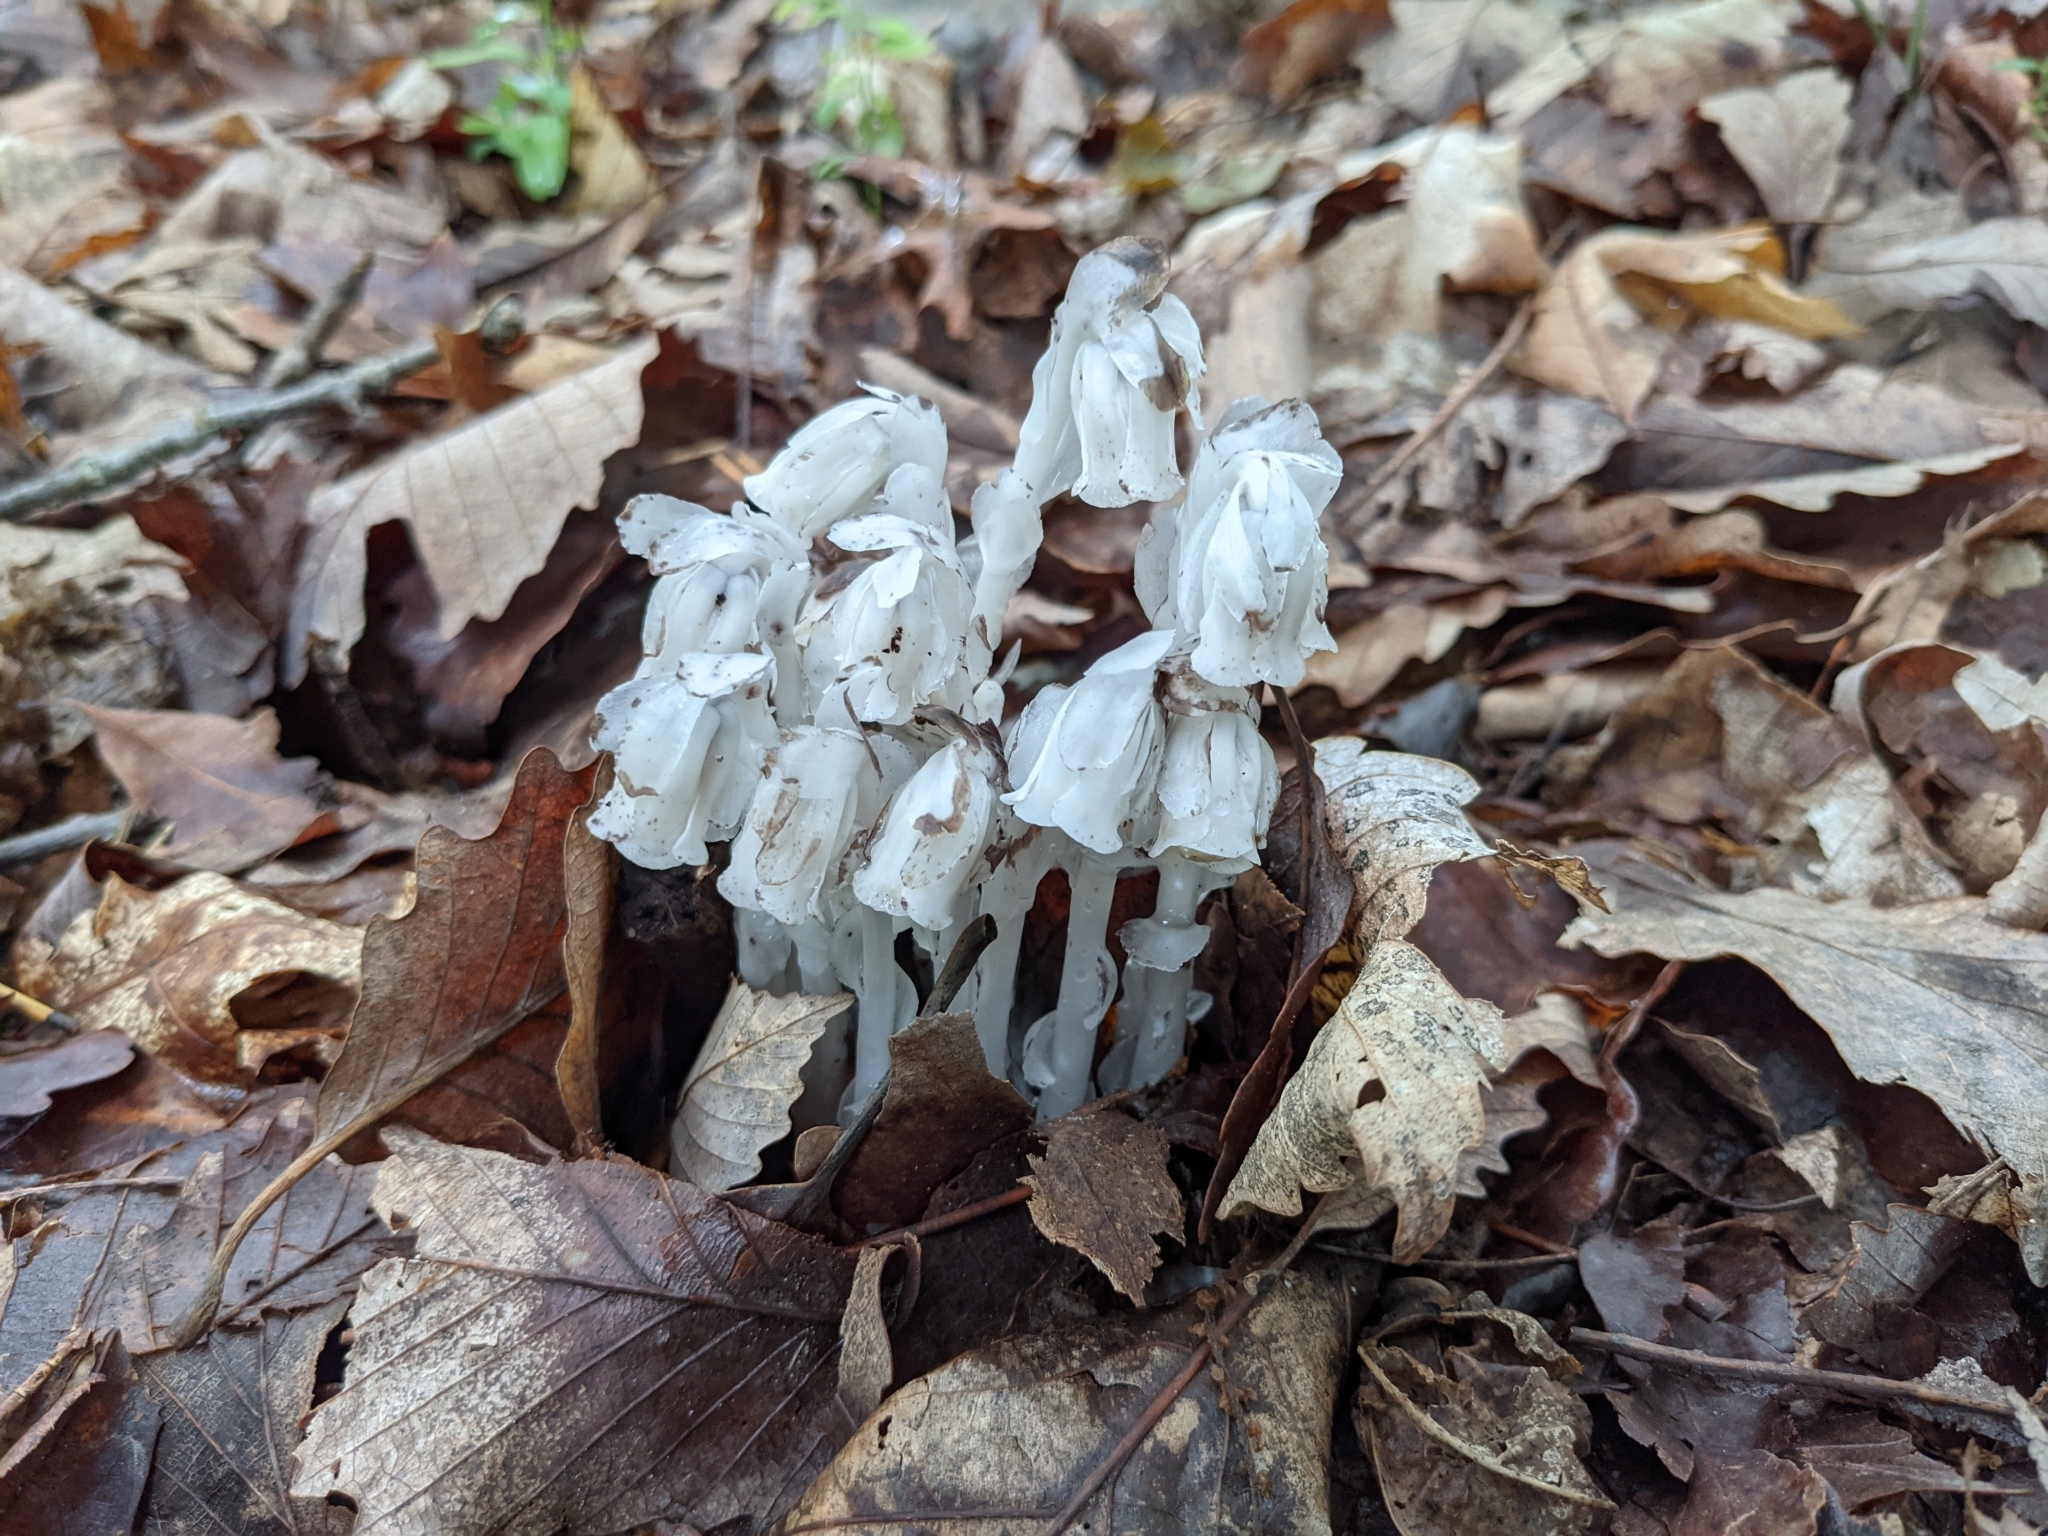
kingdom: Plantae
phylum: Tracheophyta
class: Magnoliopsida
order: Ericales
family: Ericaceae
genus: Monotropa
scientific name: Monotropa uniflora
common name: Convulsion root
